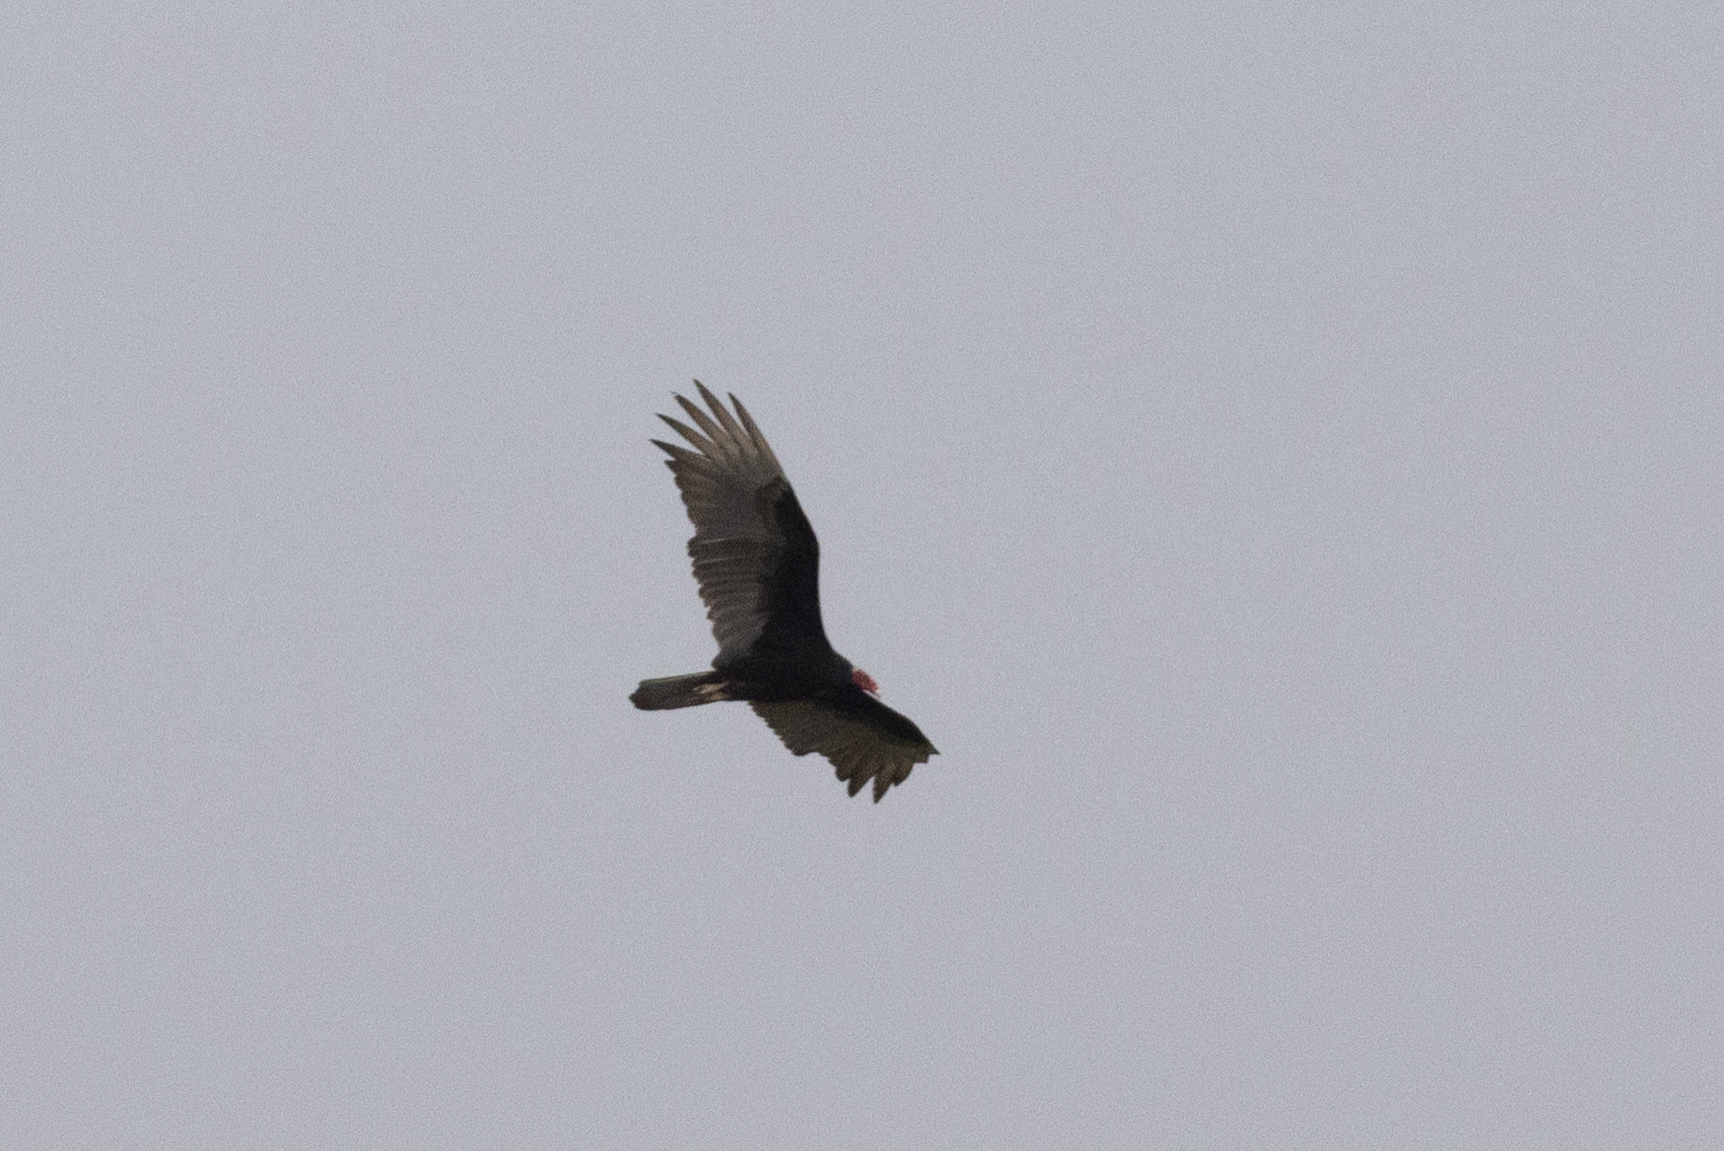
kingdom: Animalia
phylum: Chordata
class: Aves
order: Accipitriformes
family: Cathartidae
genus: Cathartes
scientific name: Cathartes aura
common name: Turkey vulture
